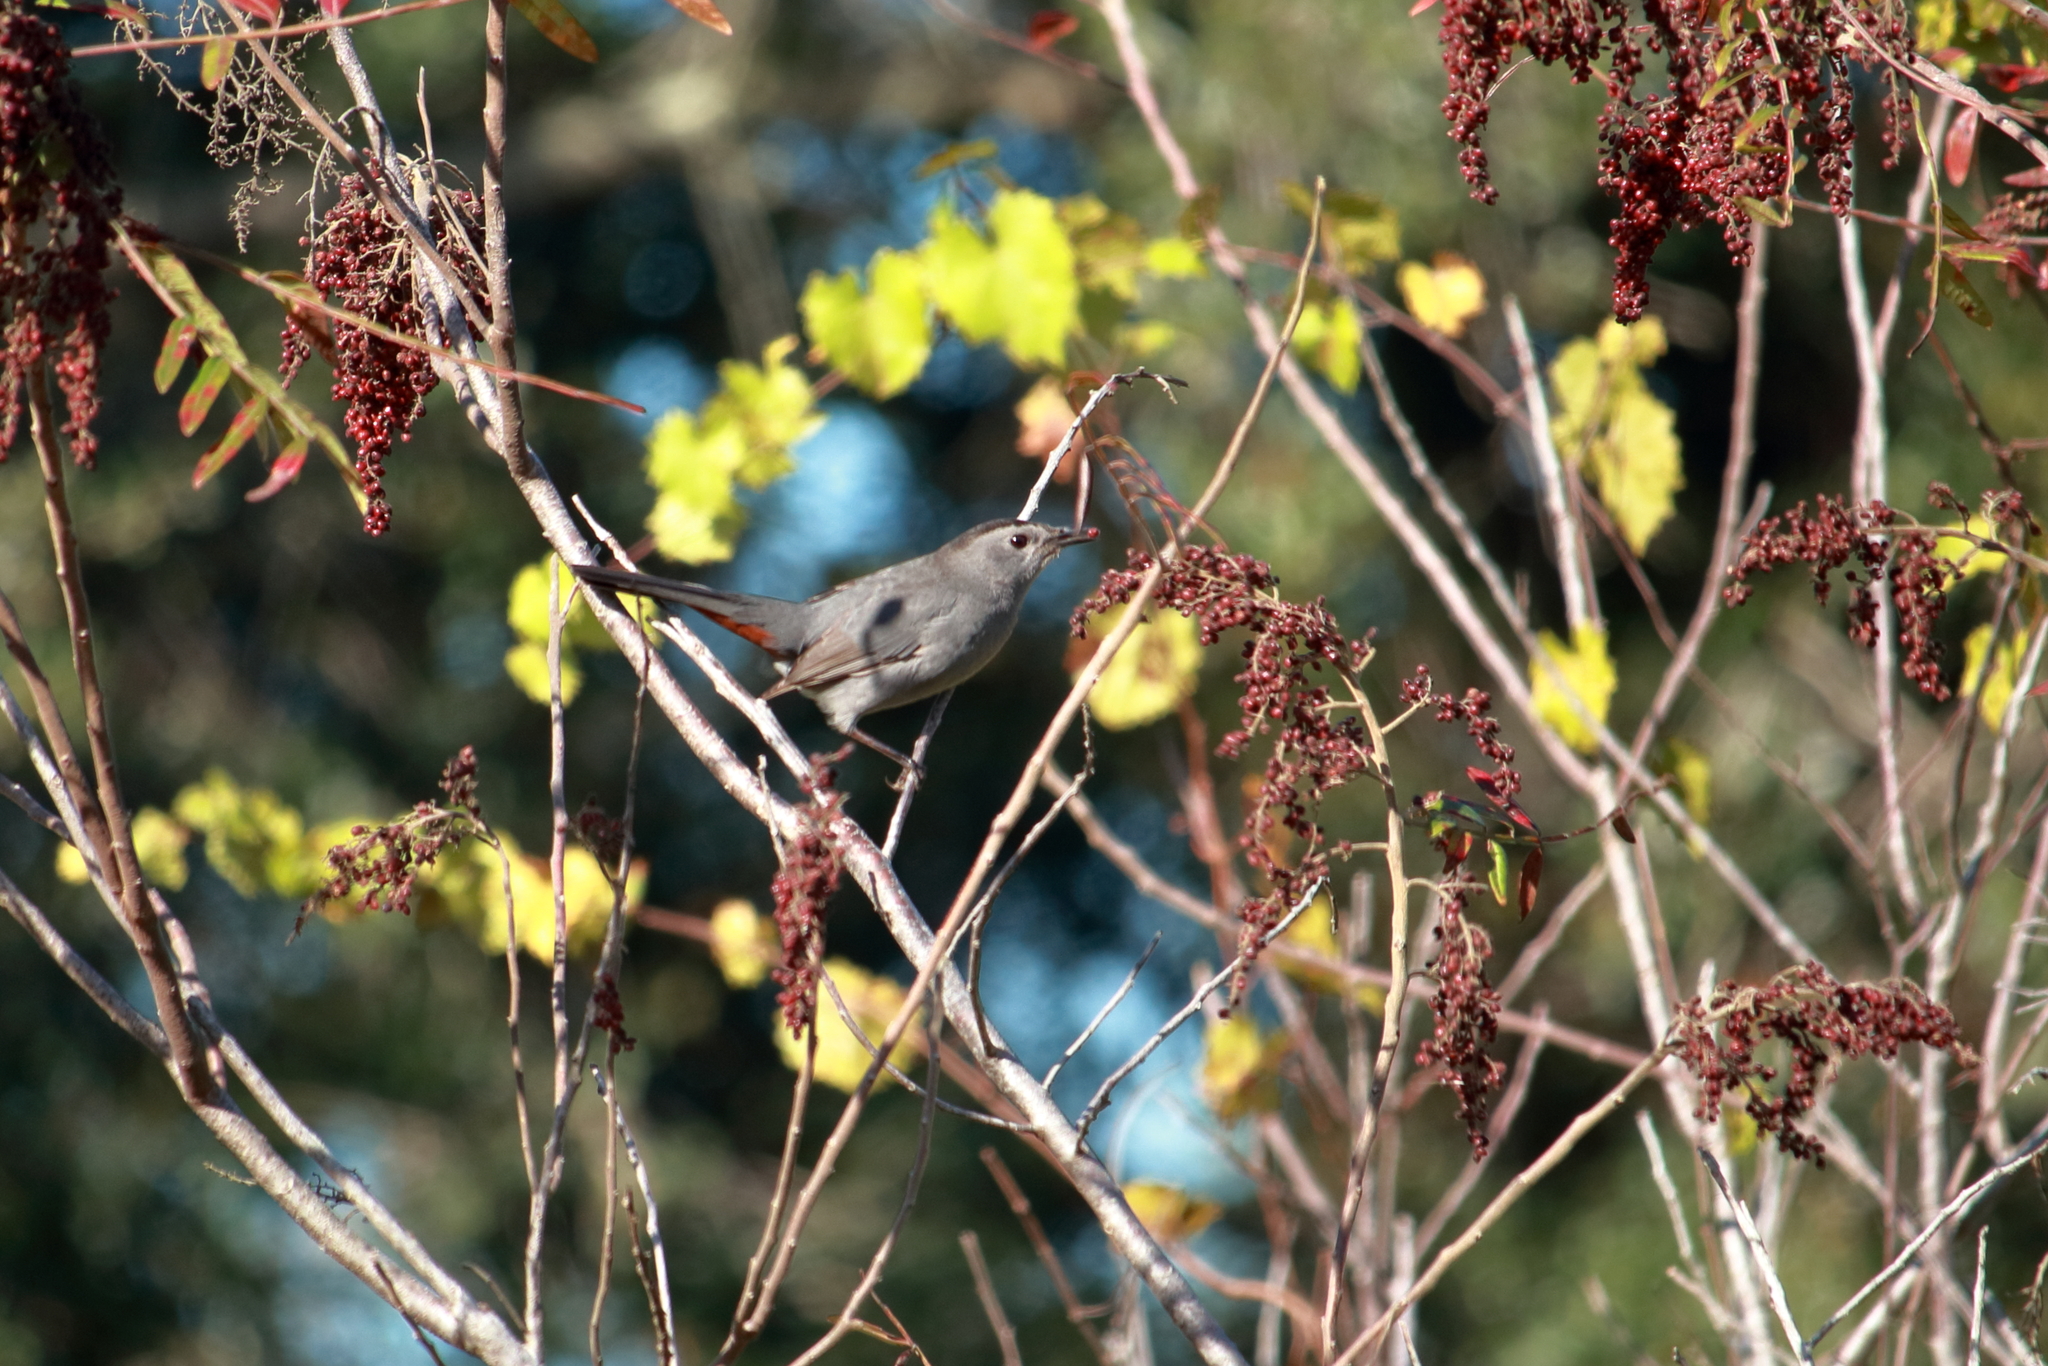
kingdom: Animalia
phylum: Chordata
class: Aves
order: Passeriformes
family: Mimidae
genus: Dumetella
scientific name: Dumetella carolinensis
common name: Gray catbird
